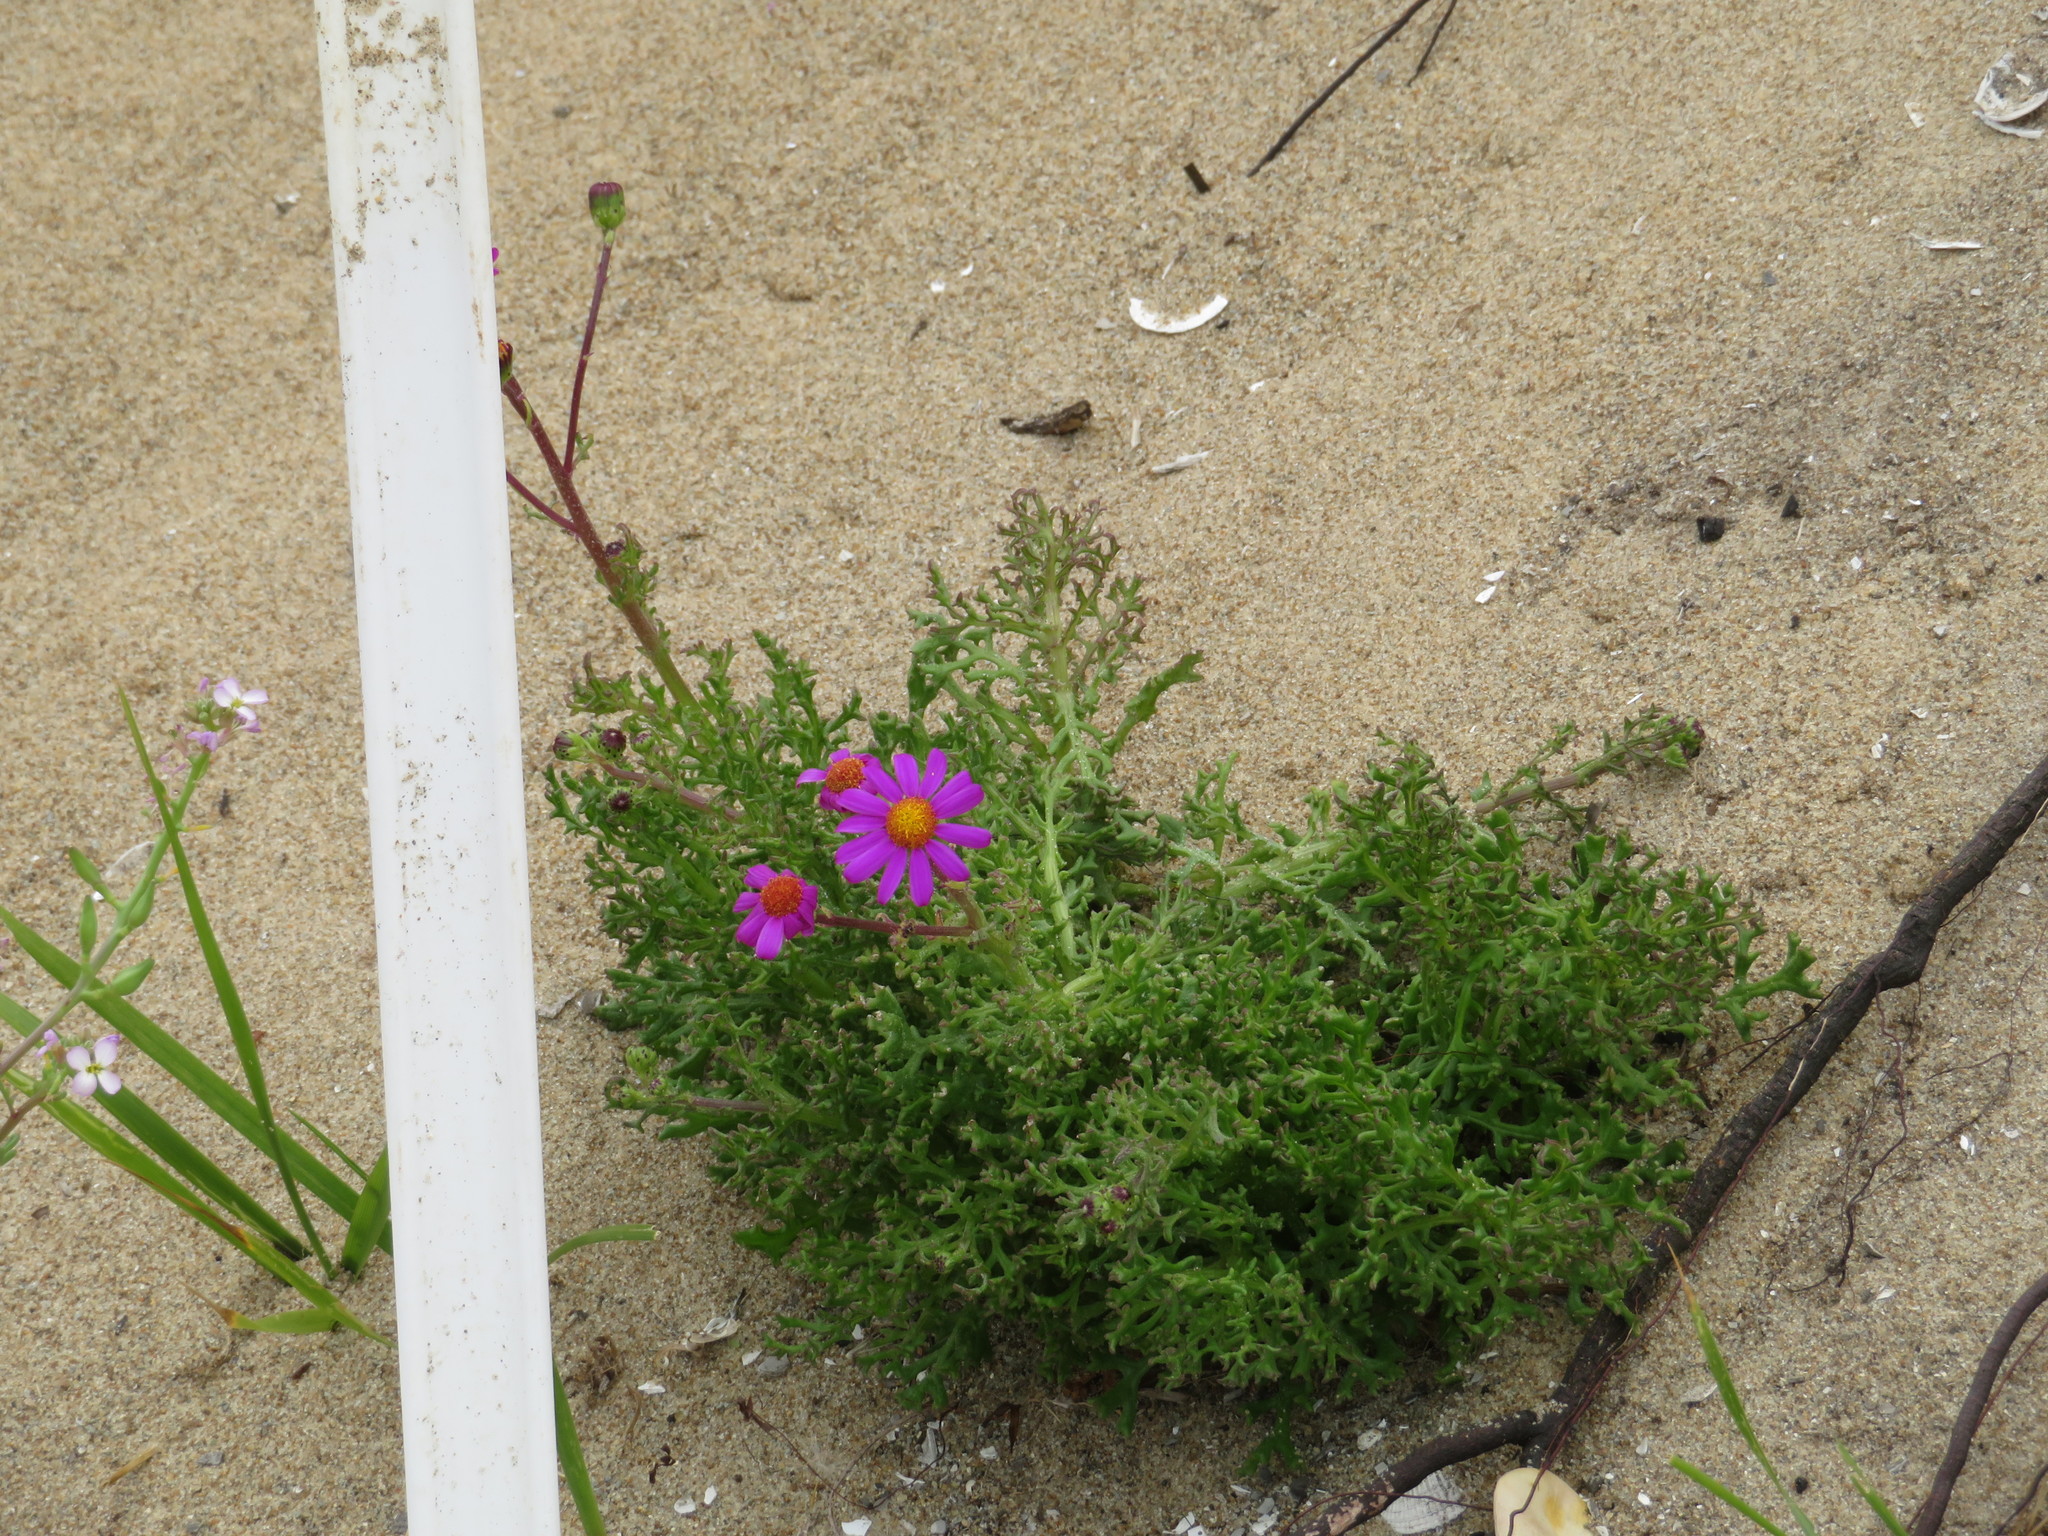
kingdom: Plantae
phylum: Tracheophyta
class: Magnoliopsida
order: Asterales
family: Asteraceae
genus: Senecio
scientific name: Senecio elegans
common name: Purple groundsel
